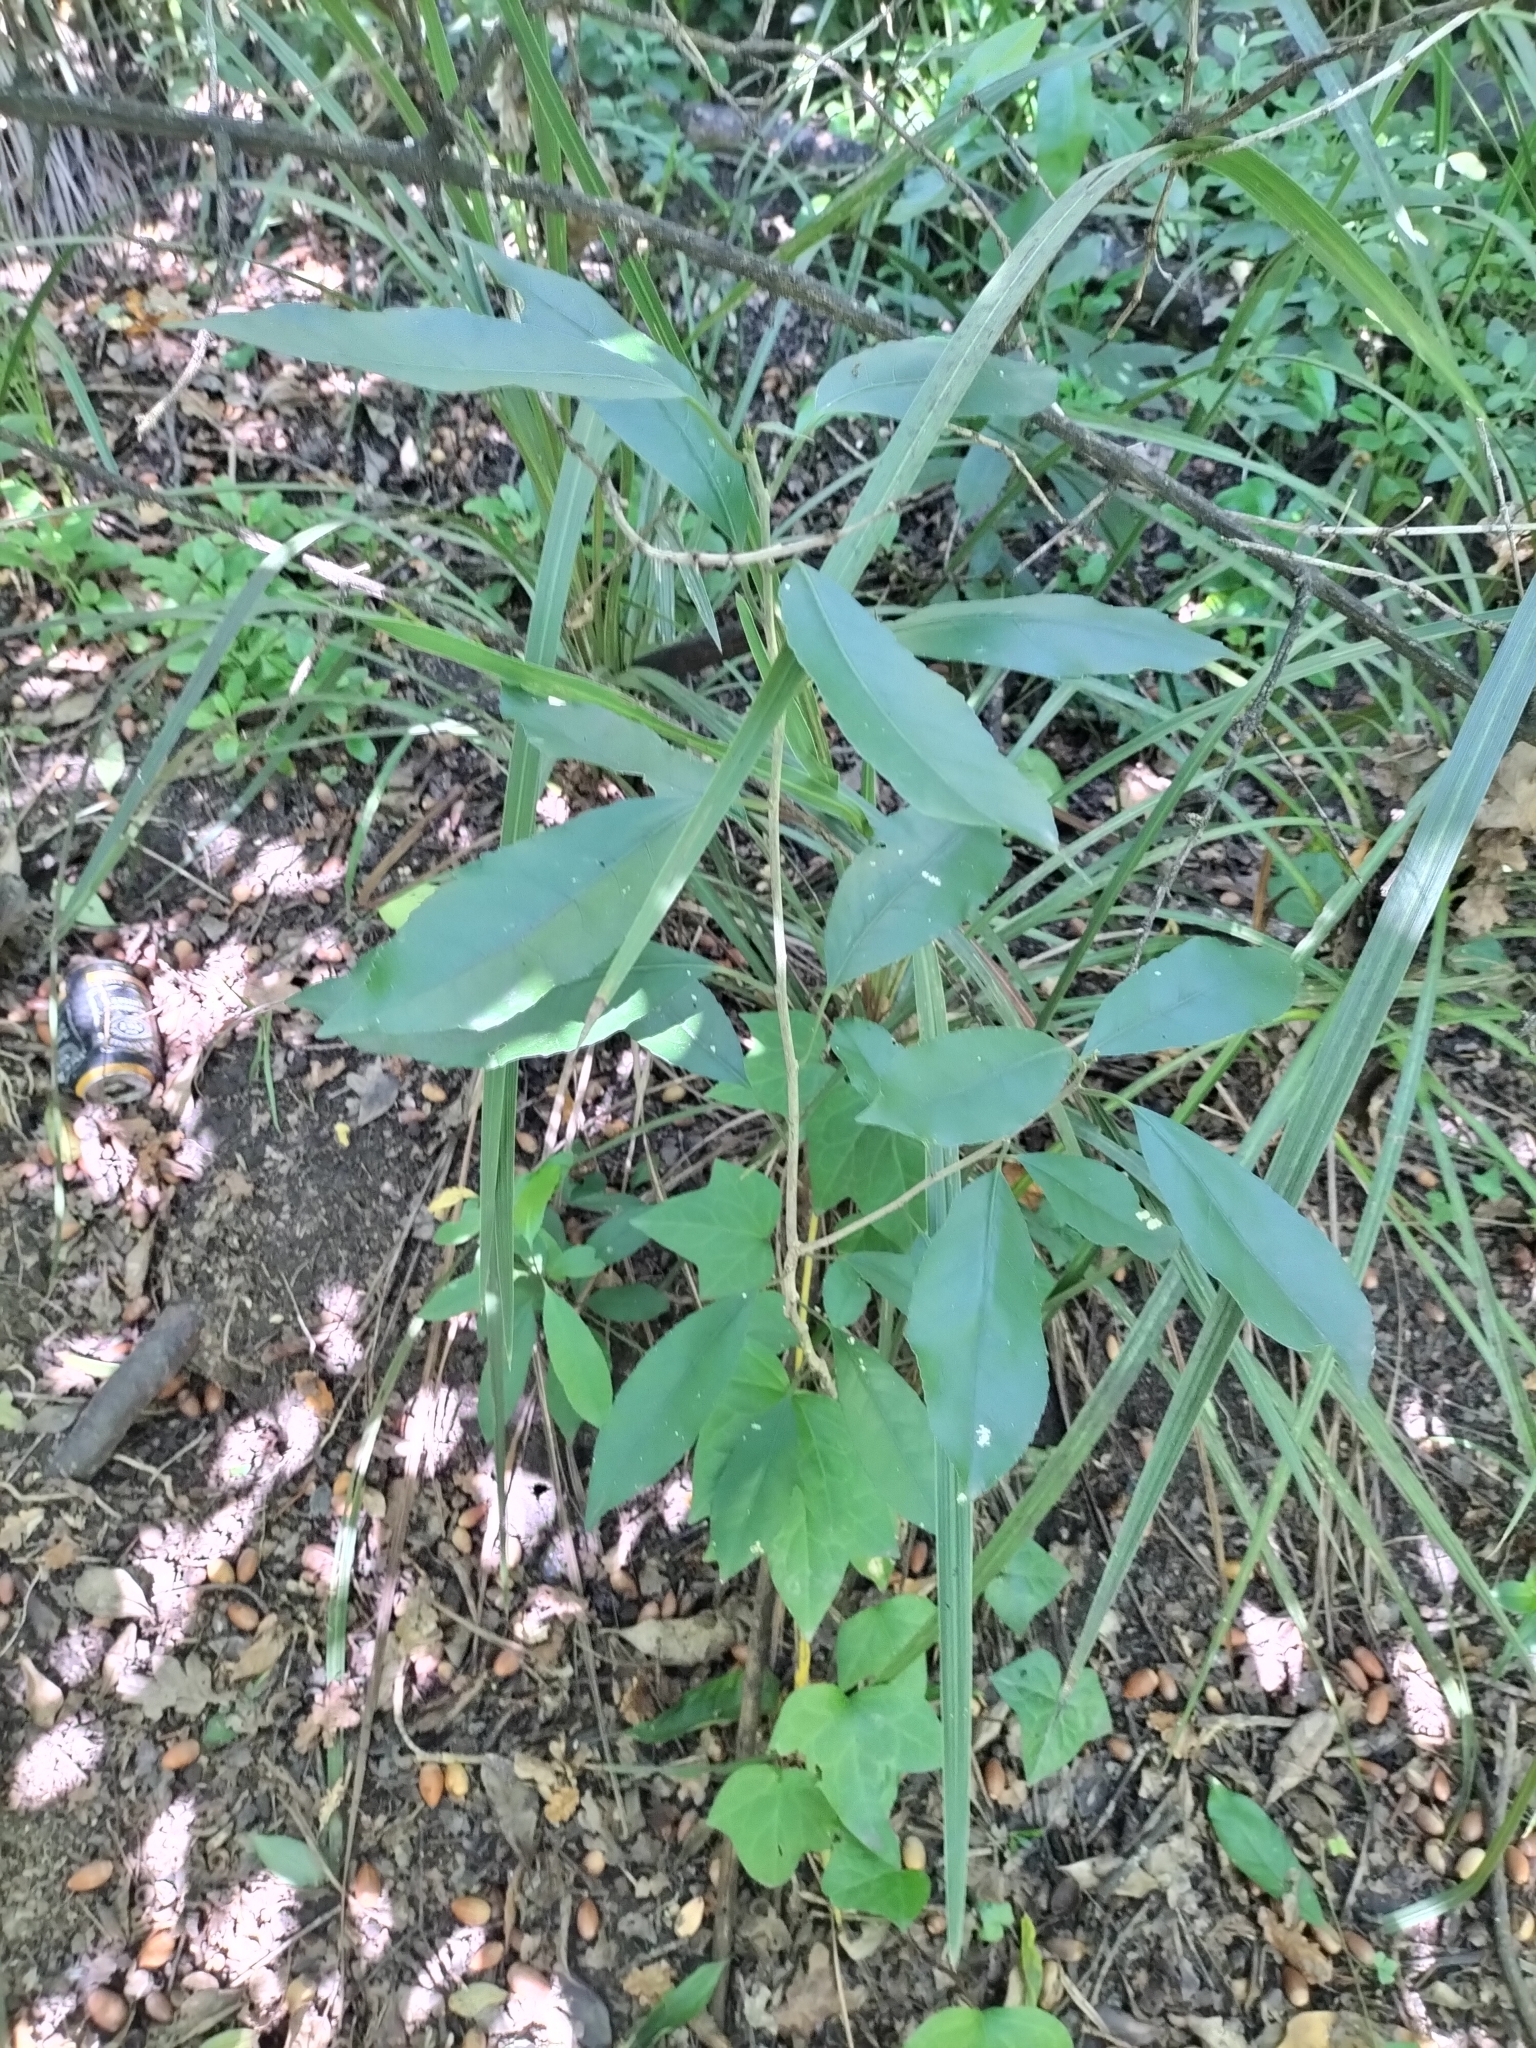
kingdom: Plantae
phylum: Tracheophyta
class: Magnoliopsida
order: Malpighiales
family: Violaceae
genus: Melicytus
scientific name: Melicytus ramiflorus
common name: Mahoe
